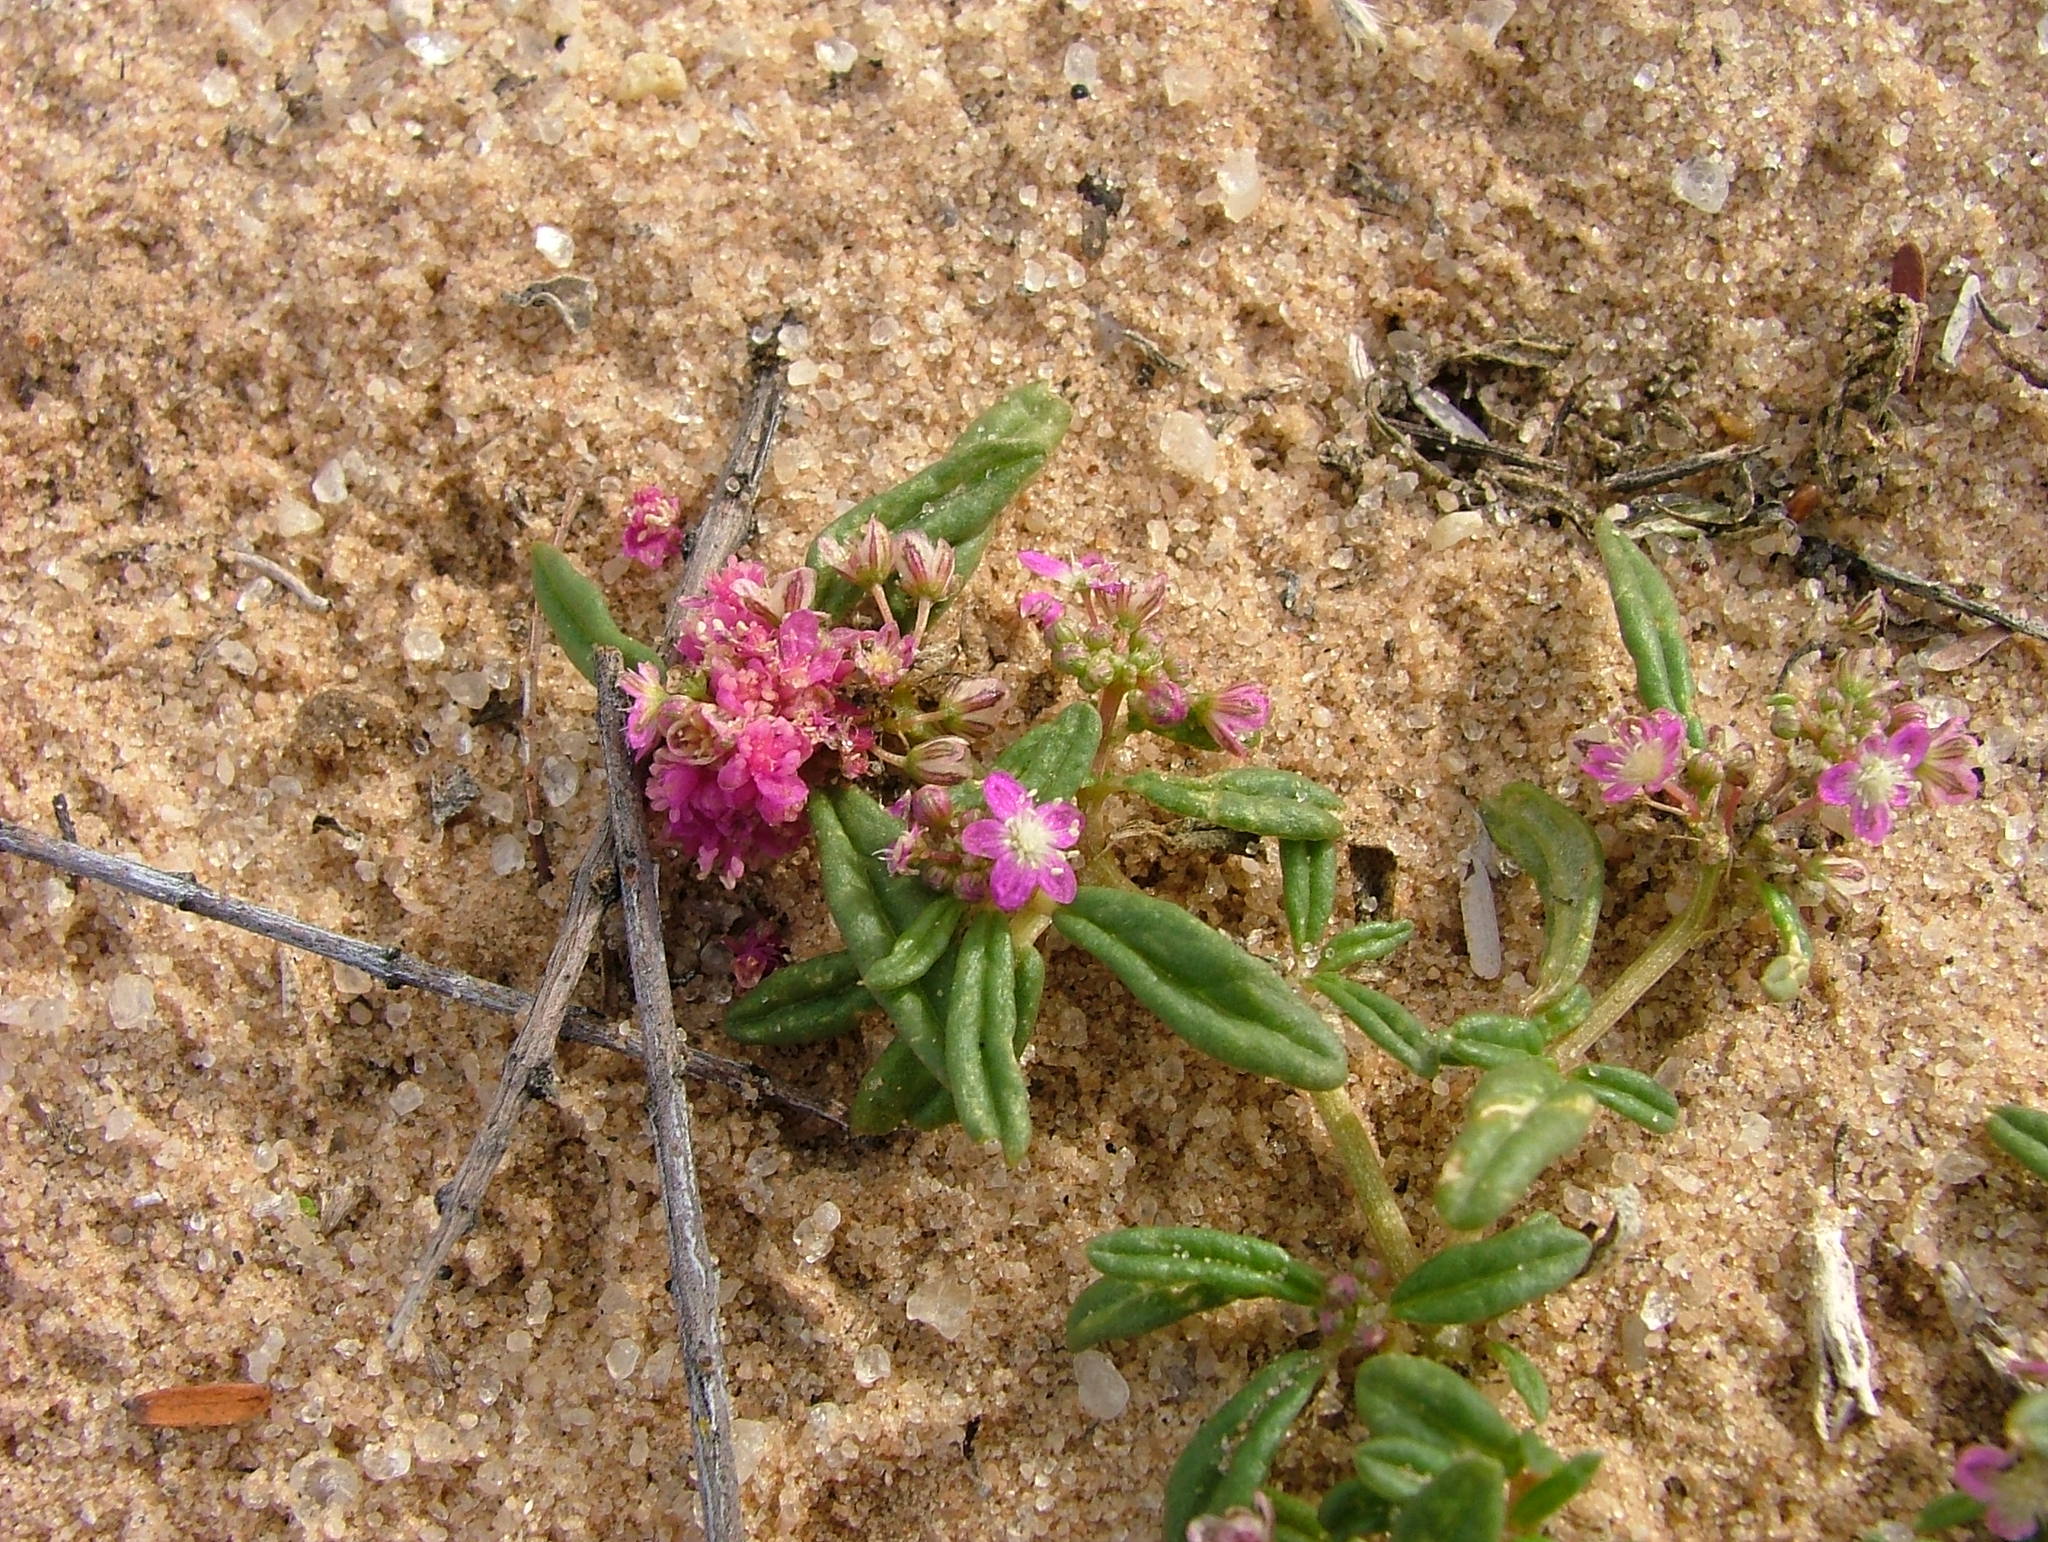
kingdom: Plantae
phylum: Tracheophyta
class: Magnoliopsida
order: Caryophyllales
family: Gisekiaceae
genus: Gisekia
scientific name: Gisekia africana
